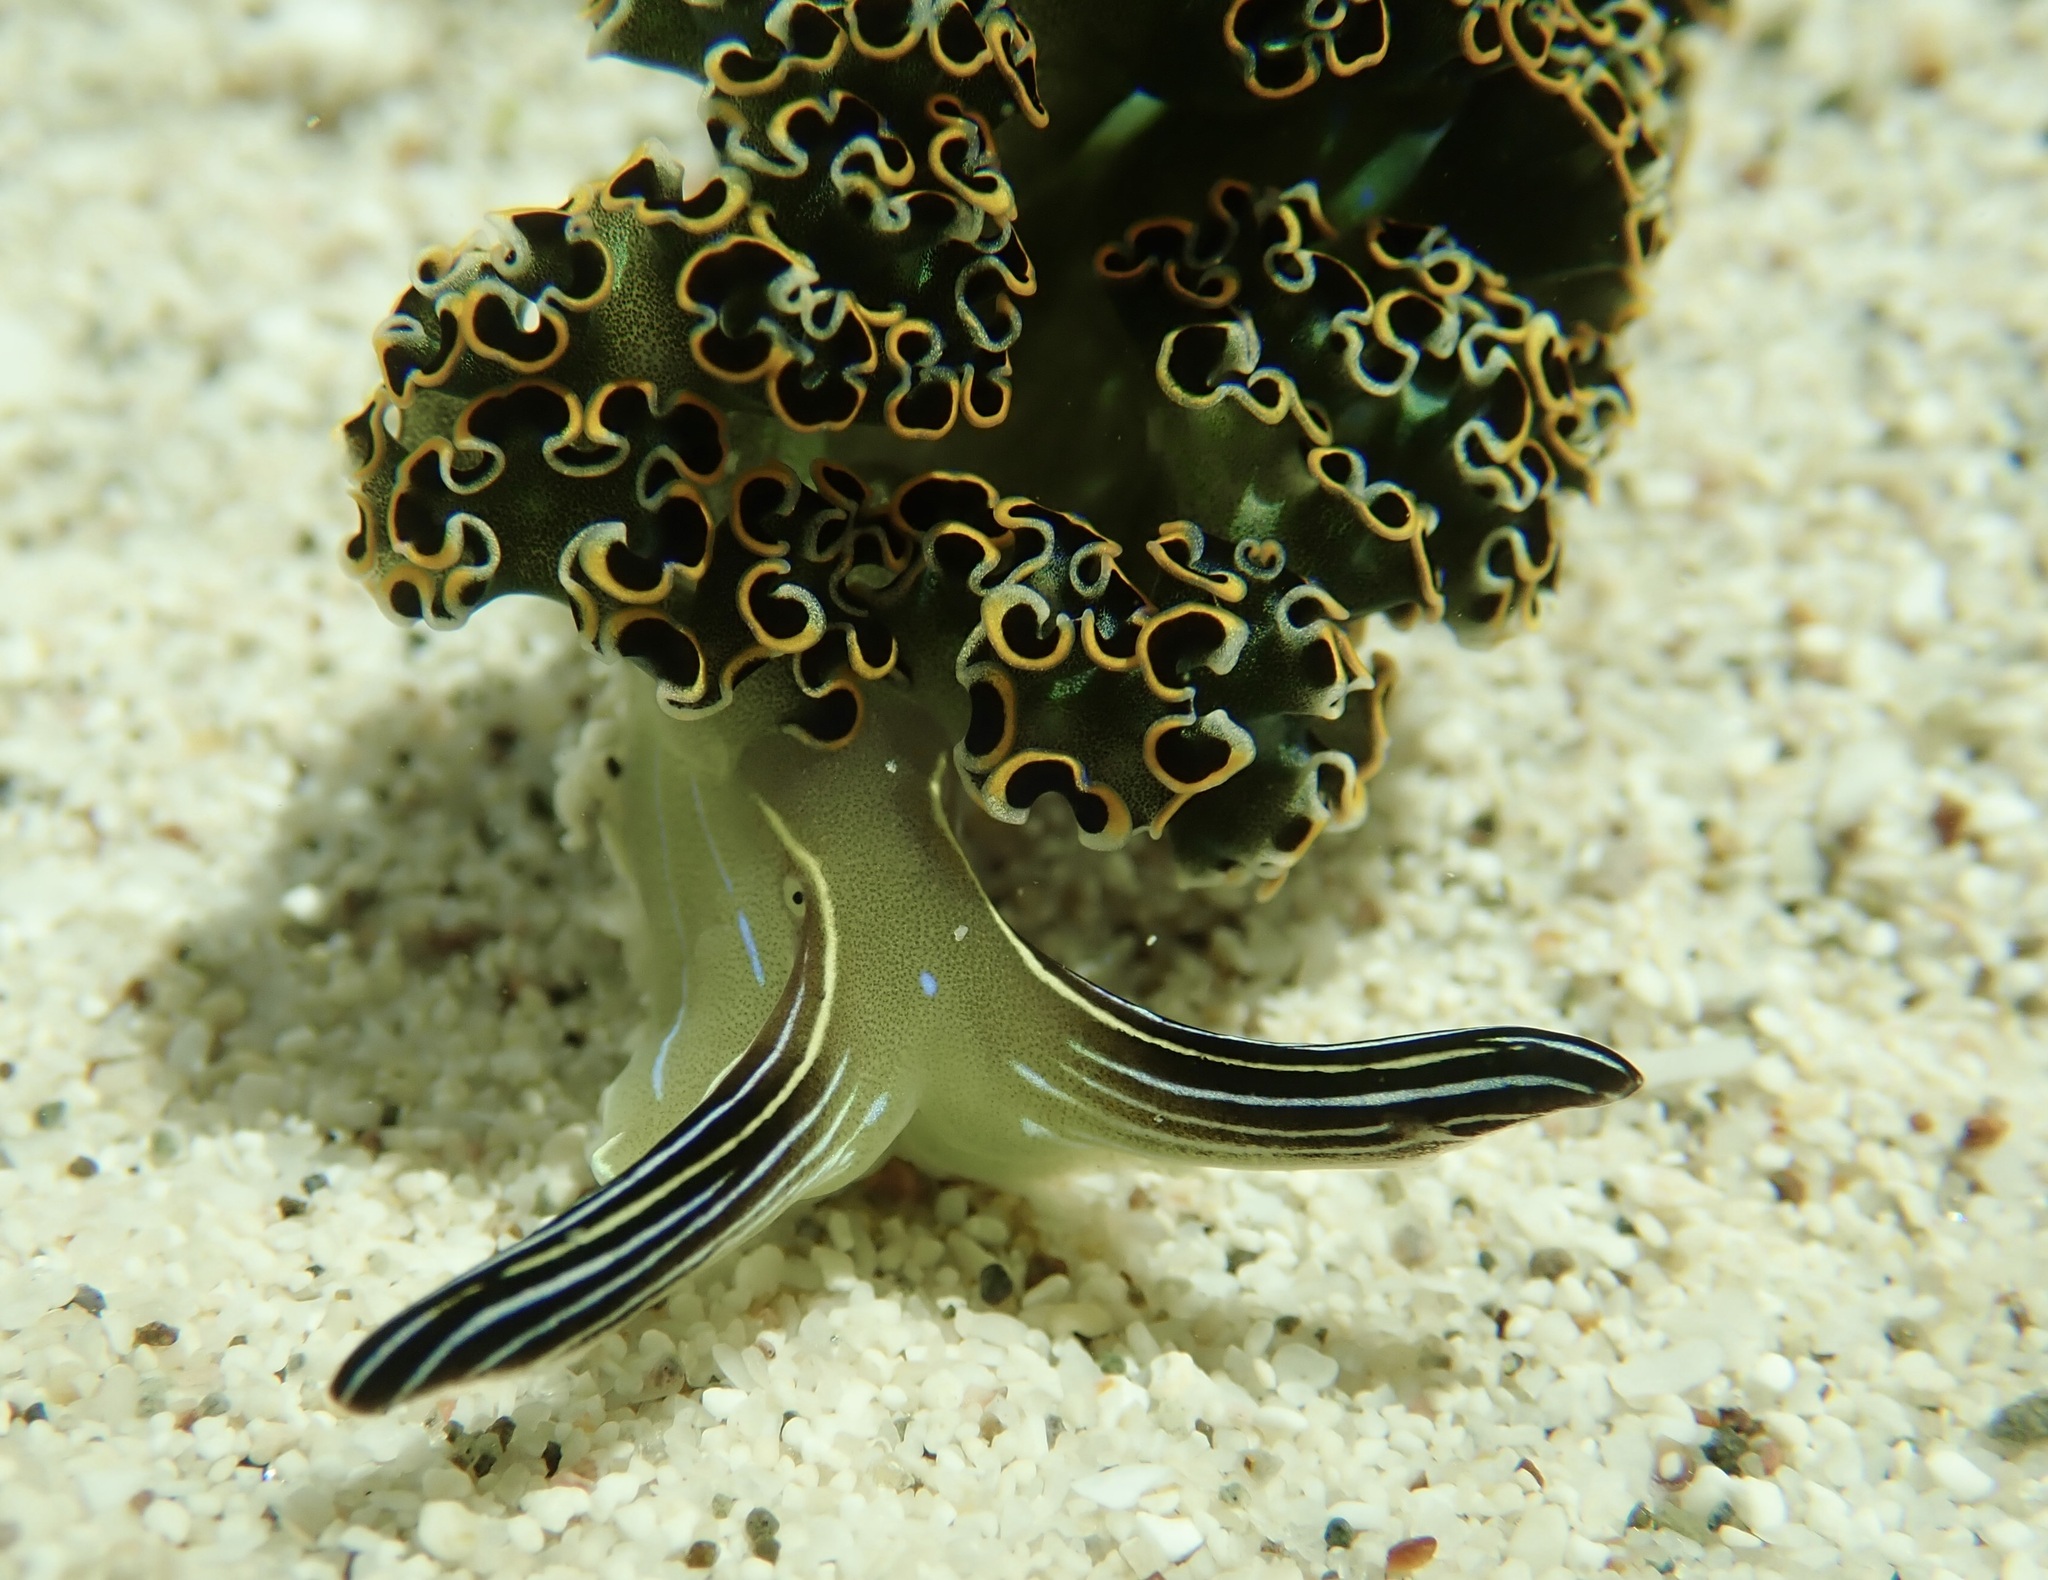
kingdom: Animalia
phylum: Mollusca
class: Gastropoda
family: Plakobranchidae
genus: Elysia
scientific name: Elysia diomedea
